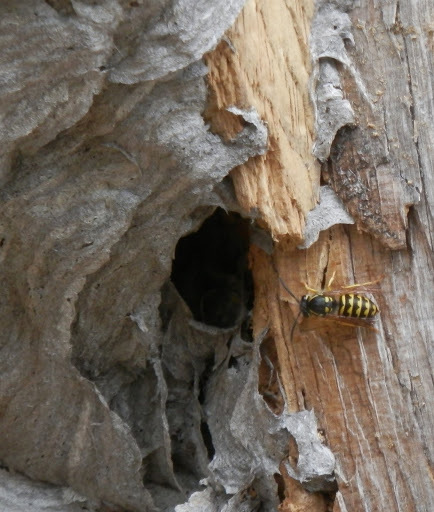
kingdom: Animalia
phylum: Arthropoda
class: Insecta
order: Hymenoptera
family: Vespidae
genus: Dolichovespula
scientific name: Dolichovespula arenaria
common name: Aerial yellowjacket
